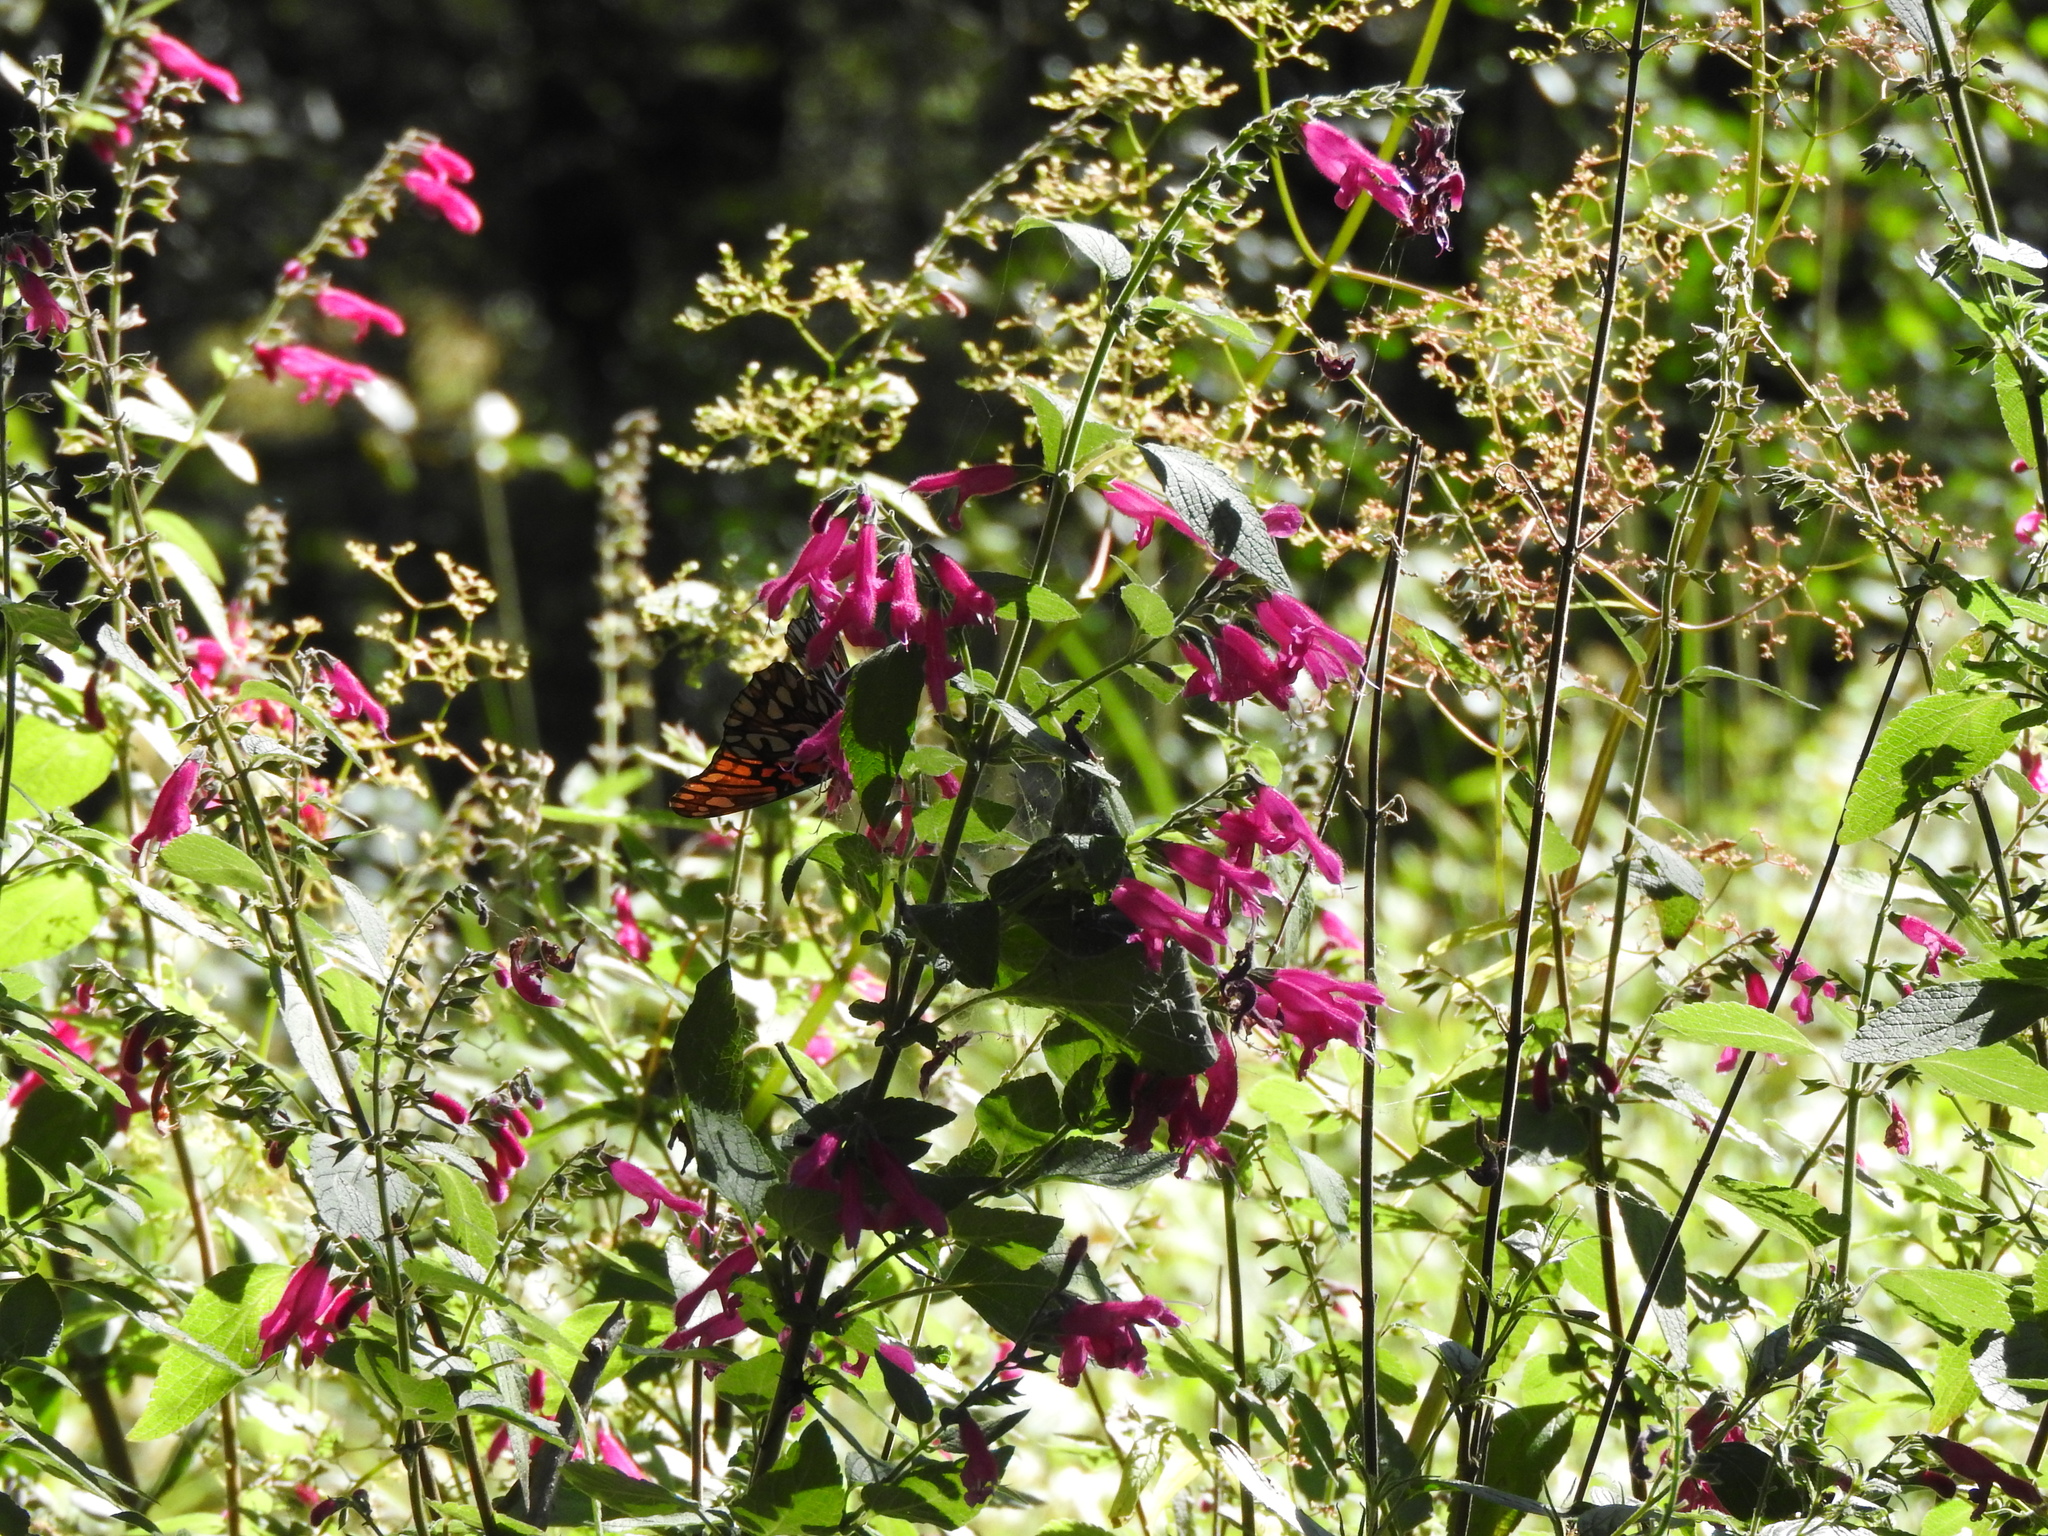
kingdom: Plantae
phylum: Tracheophyta
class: Magnoliopsida
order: Lamiales
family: Lamiaceae
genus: Salvia
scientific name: Salvia curviflora
